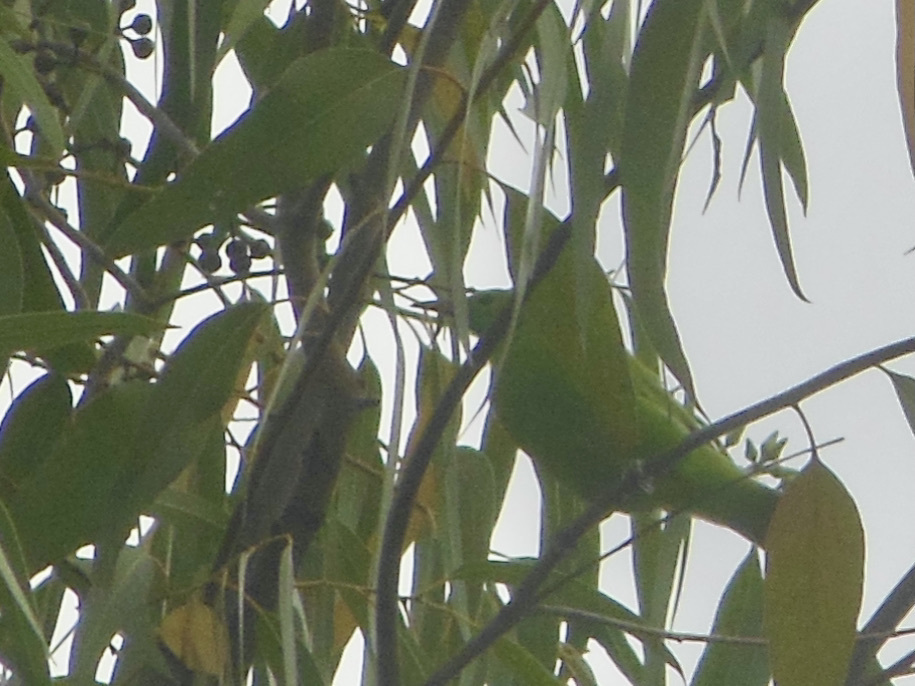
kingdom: Animalia
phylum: Chordata
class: Aves
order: Passeriformes
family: Chloropseidae
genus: Chloropsis
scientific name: Chloropsis jerdoni
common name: Jerdon's leafbird
